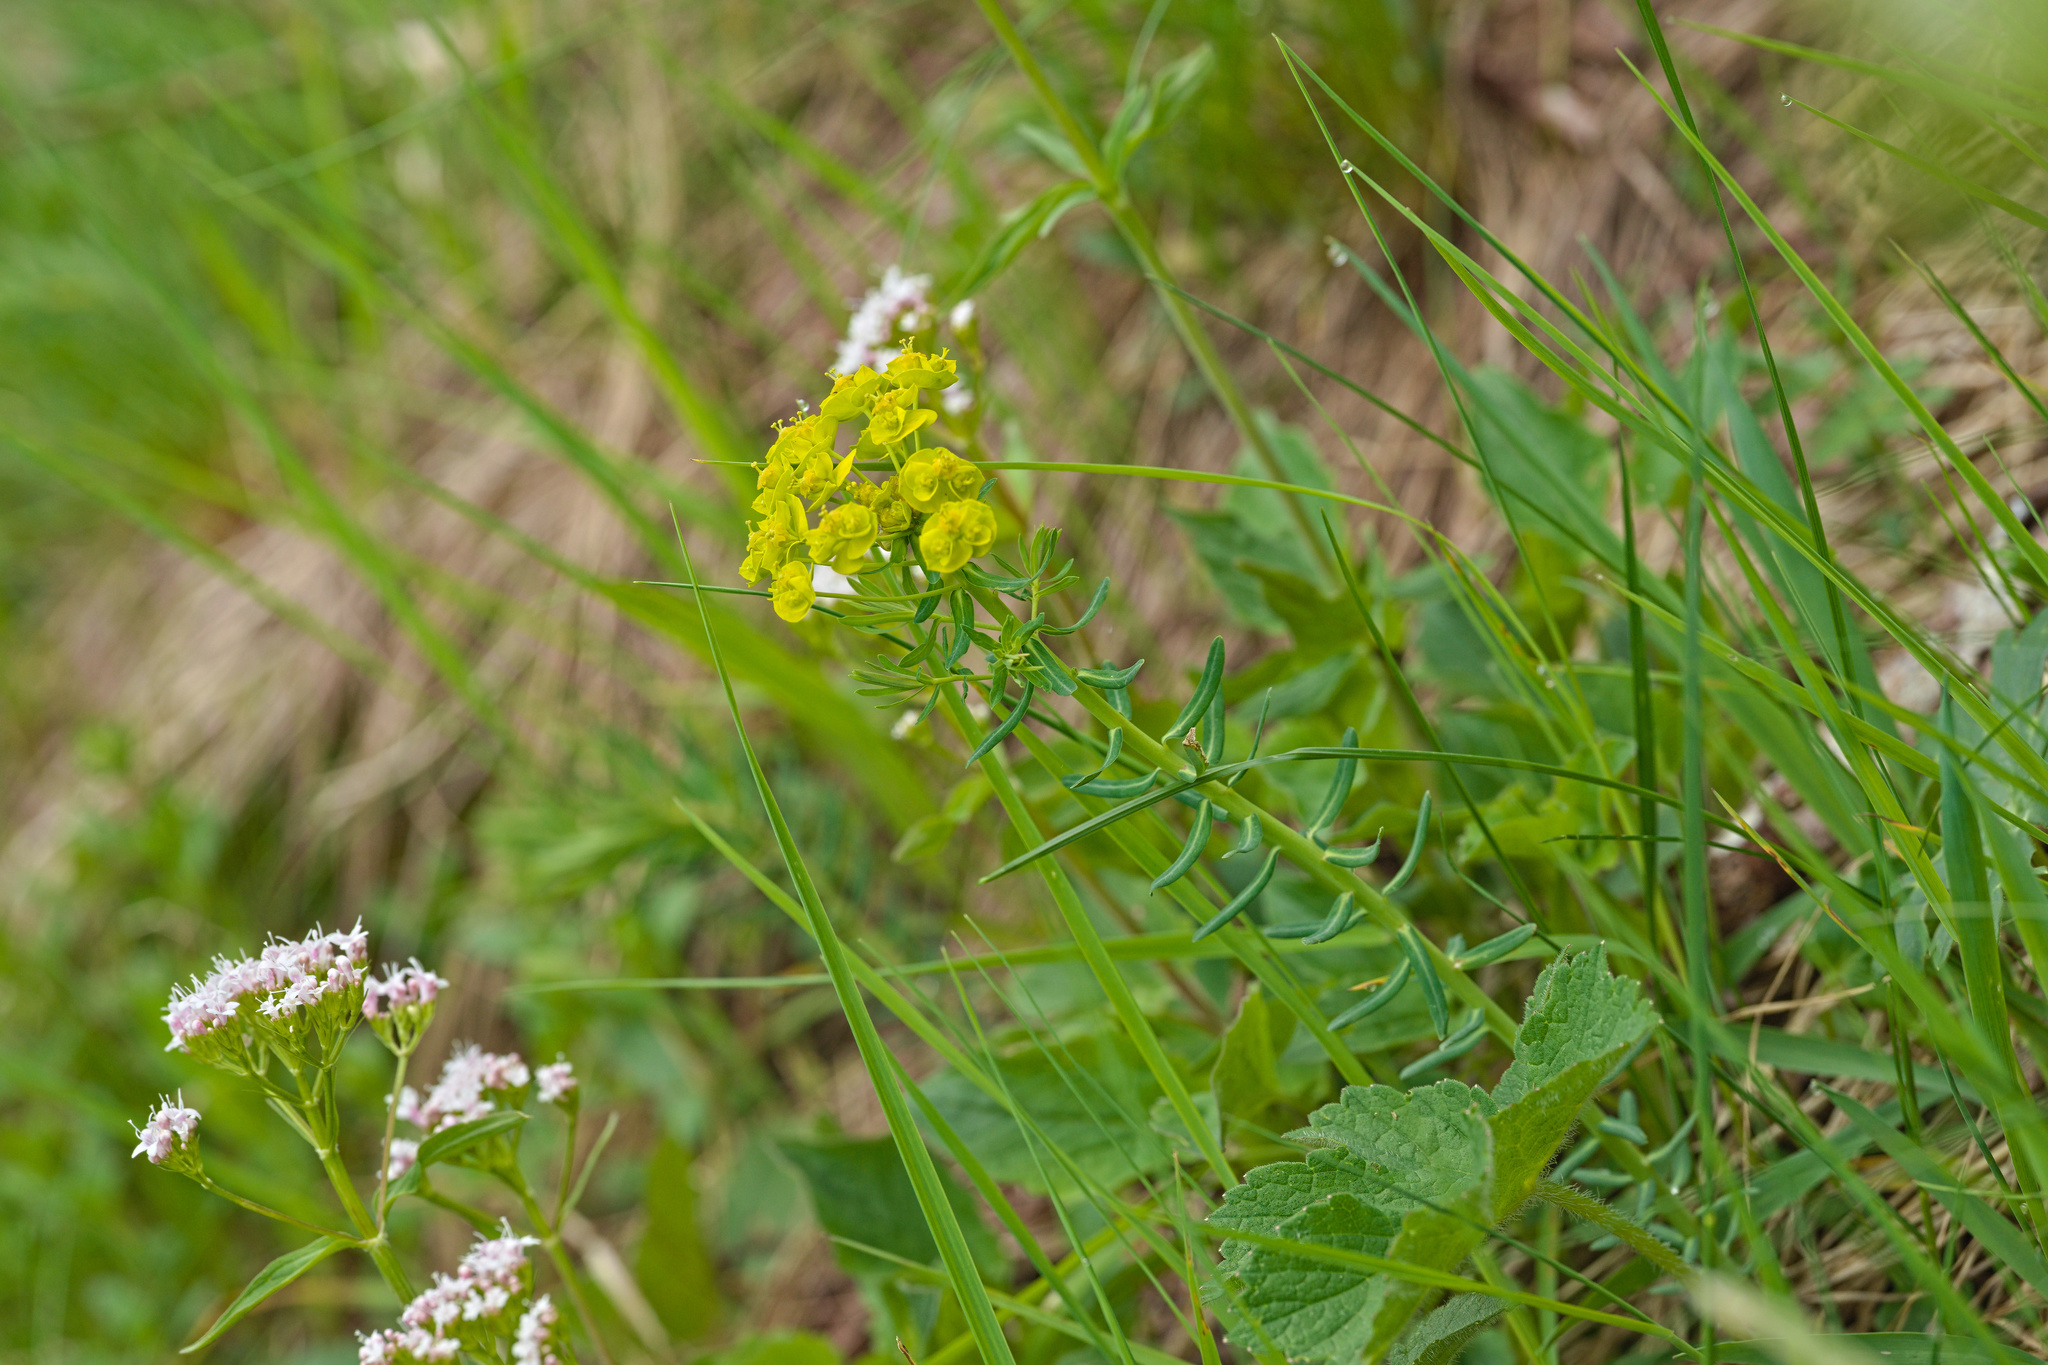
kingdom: Plantae
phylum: Tracheophyta
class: Magnoliopsida
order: Malpighiales
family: Euphorbiaceae
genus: Euphorbia
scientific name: Euphorbia cyparissias
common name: Cypress spurge
